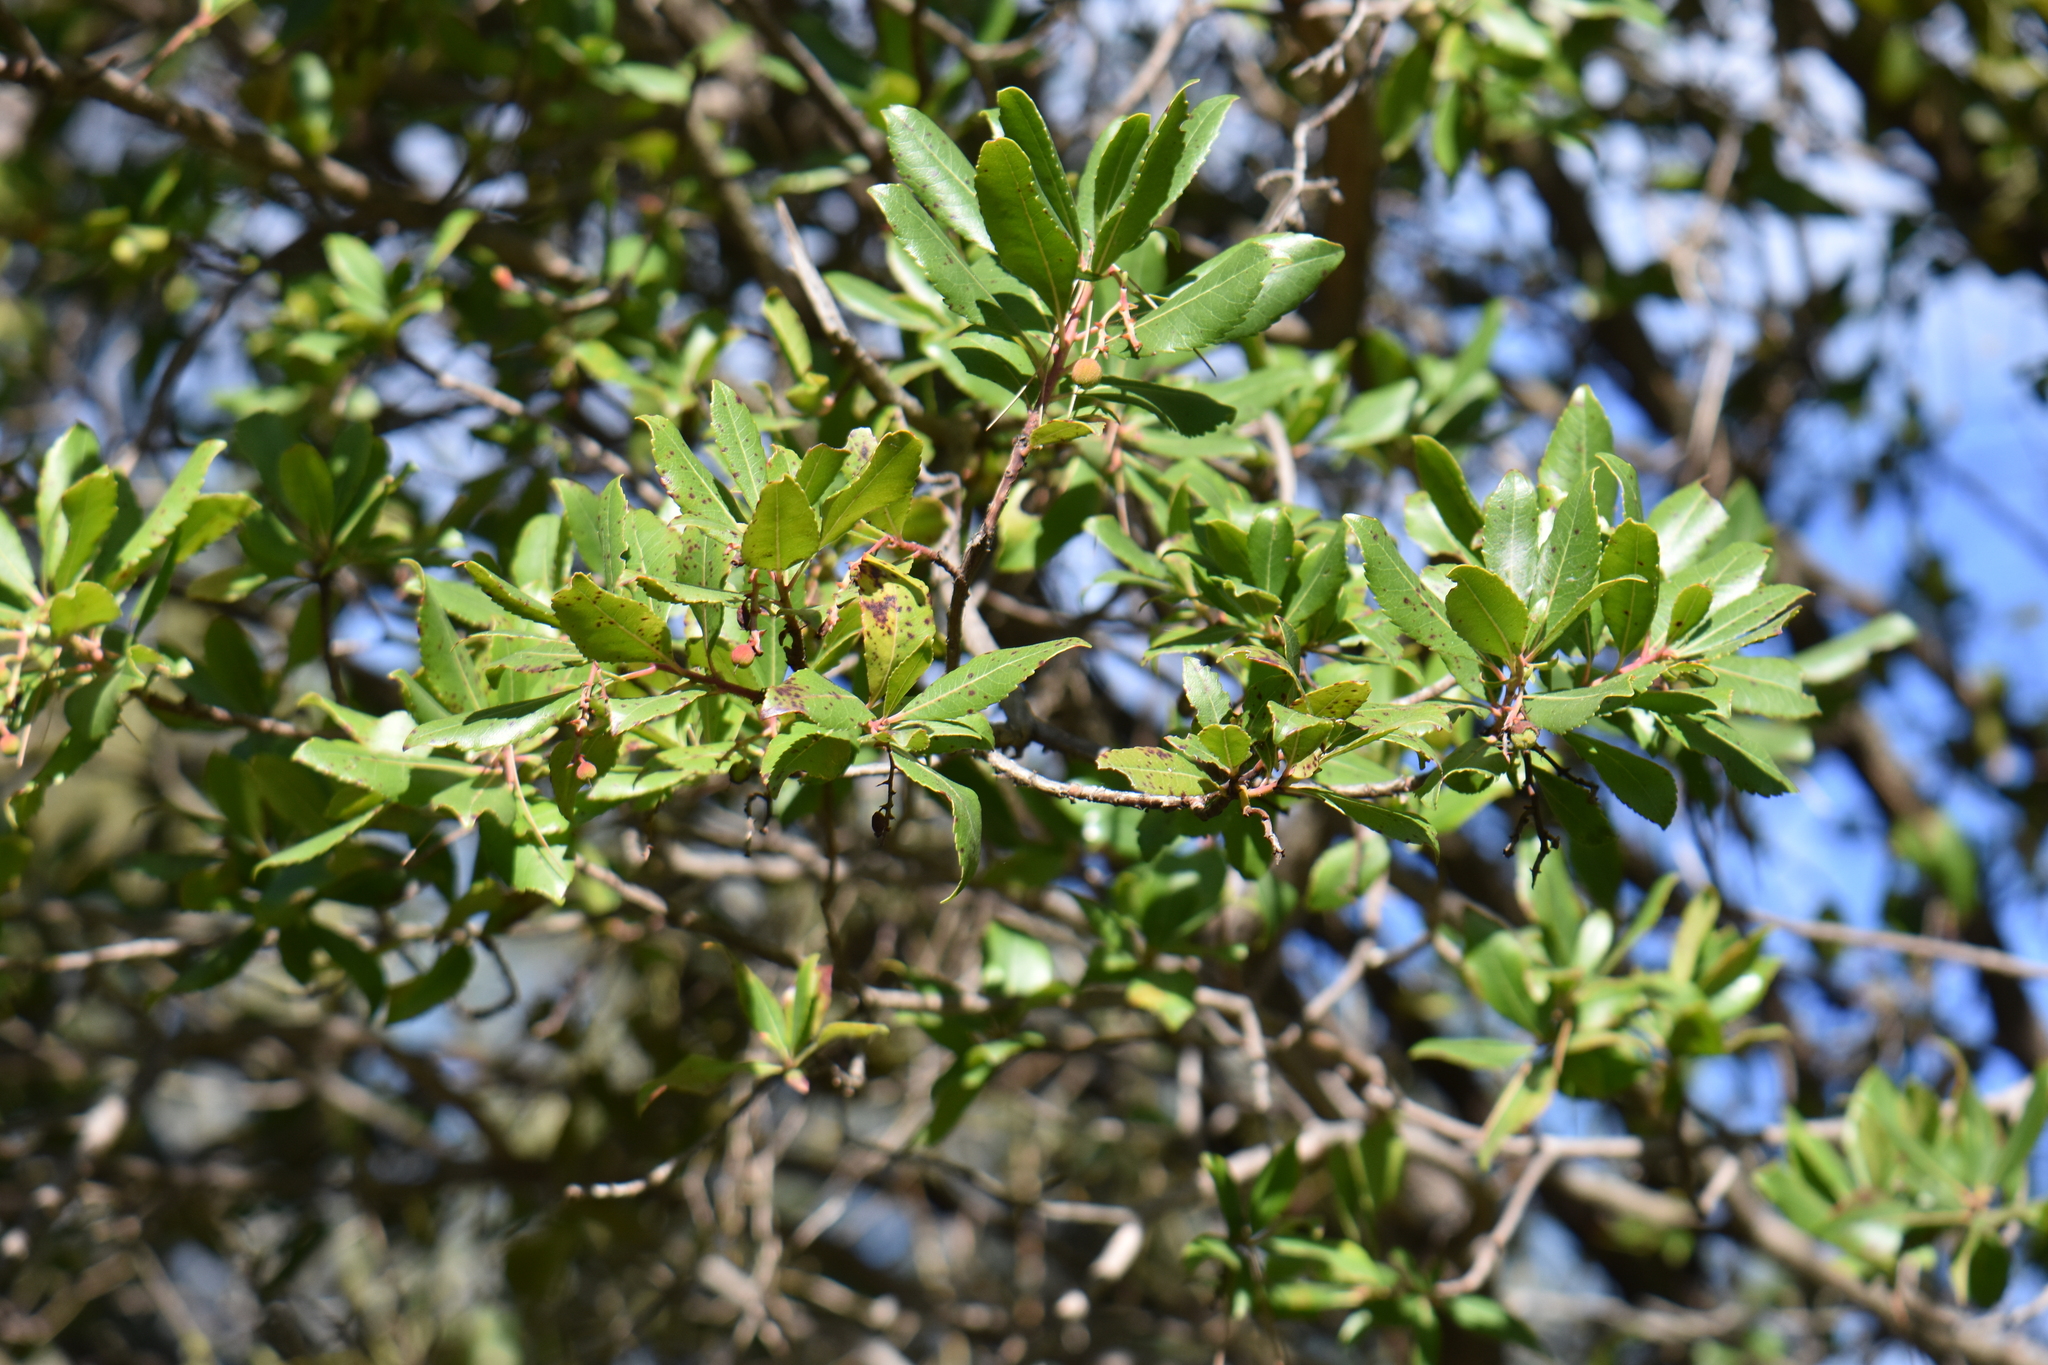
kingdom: Plantae
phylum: Tracheophyta
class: Magnoliopsida
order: Ericales
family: Ericaceae
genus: Arbutus
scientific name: Arbutus unedo
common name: Strawberry-tree
